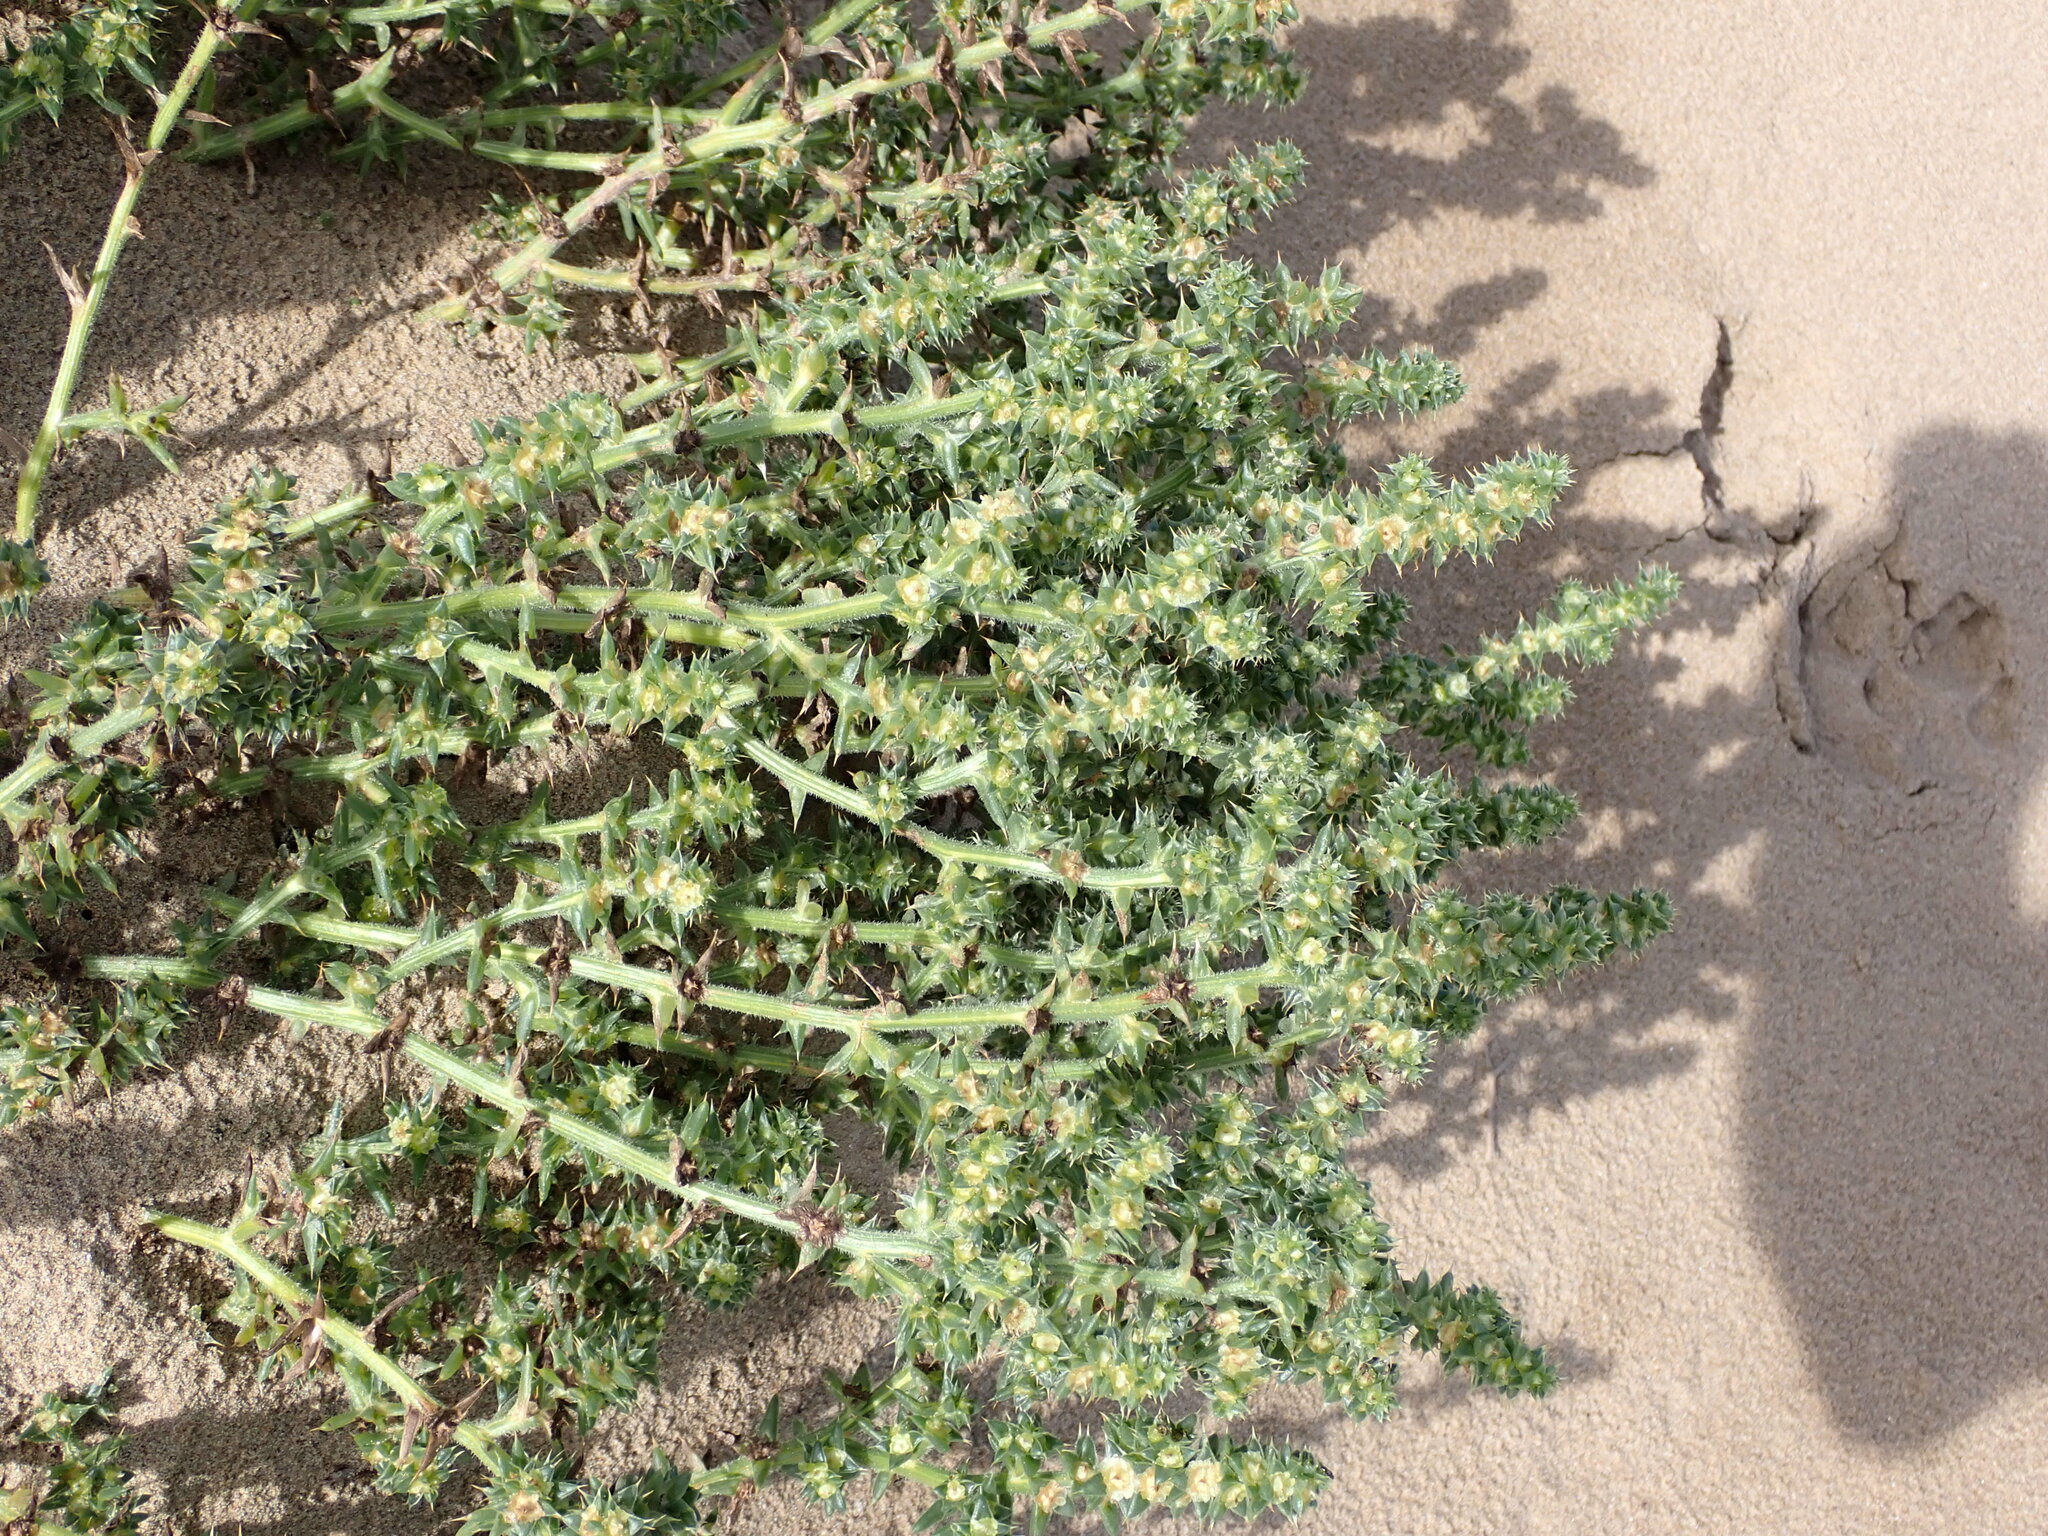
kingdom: Plantae
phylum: Tracheophyta
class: Magnoliopsida
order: Caryophyllales
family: Amaranthaceae
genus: Salsola
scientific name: Salsola kali
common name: Saltwort
